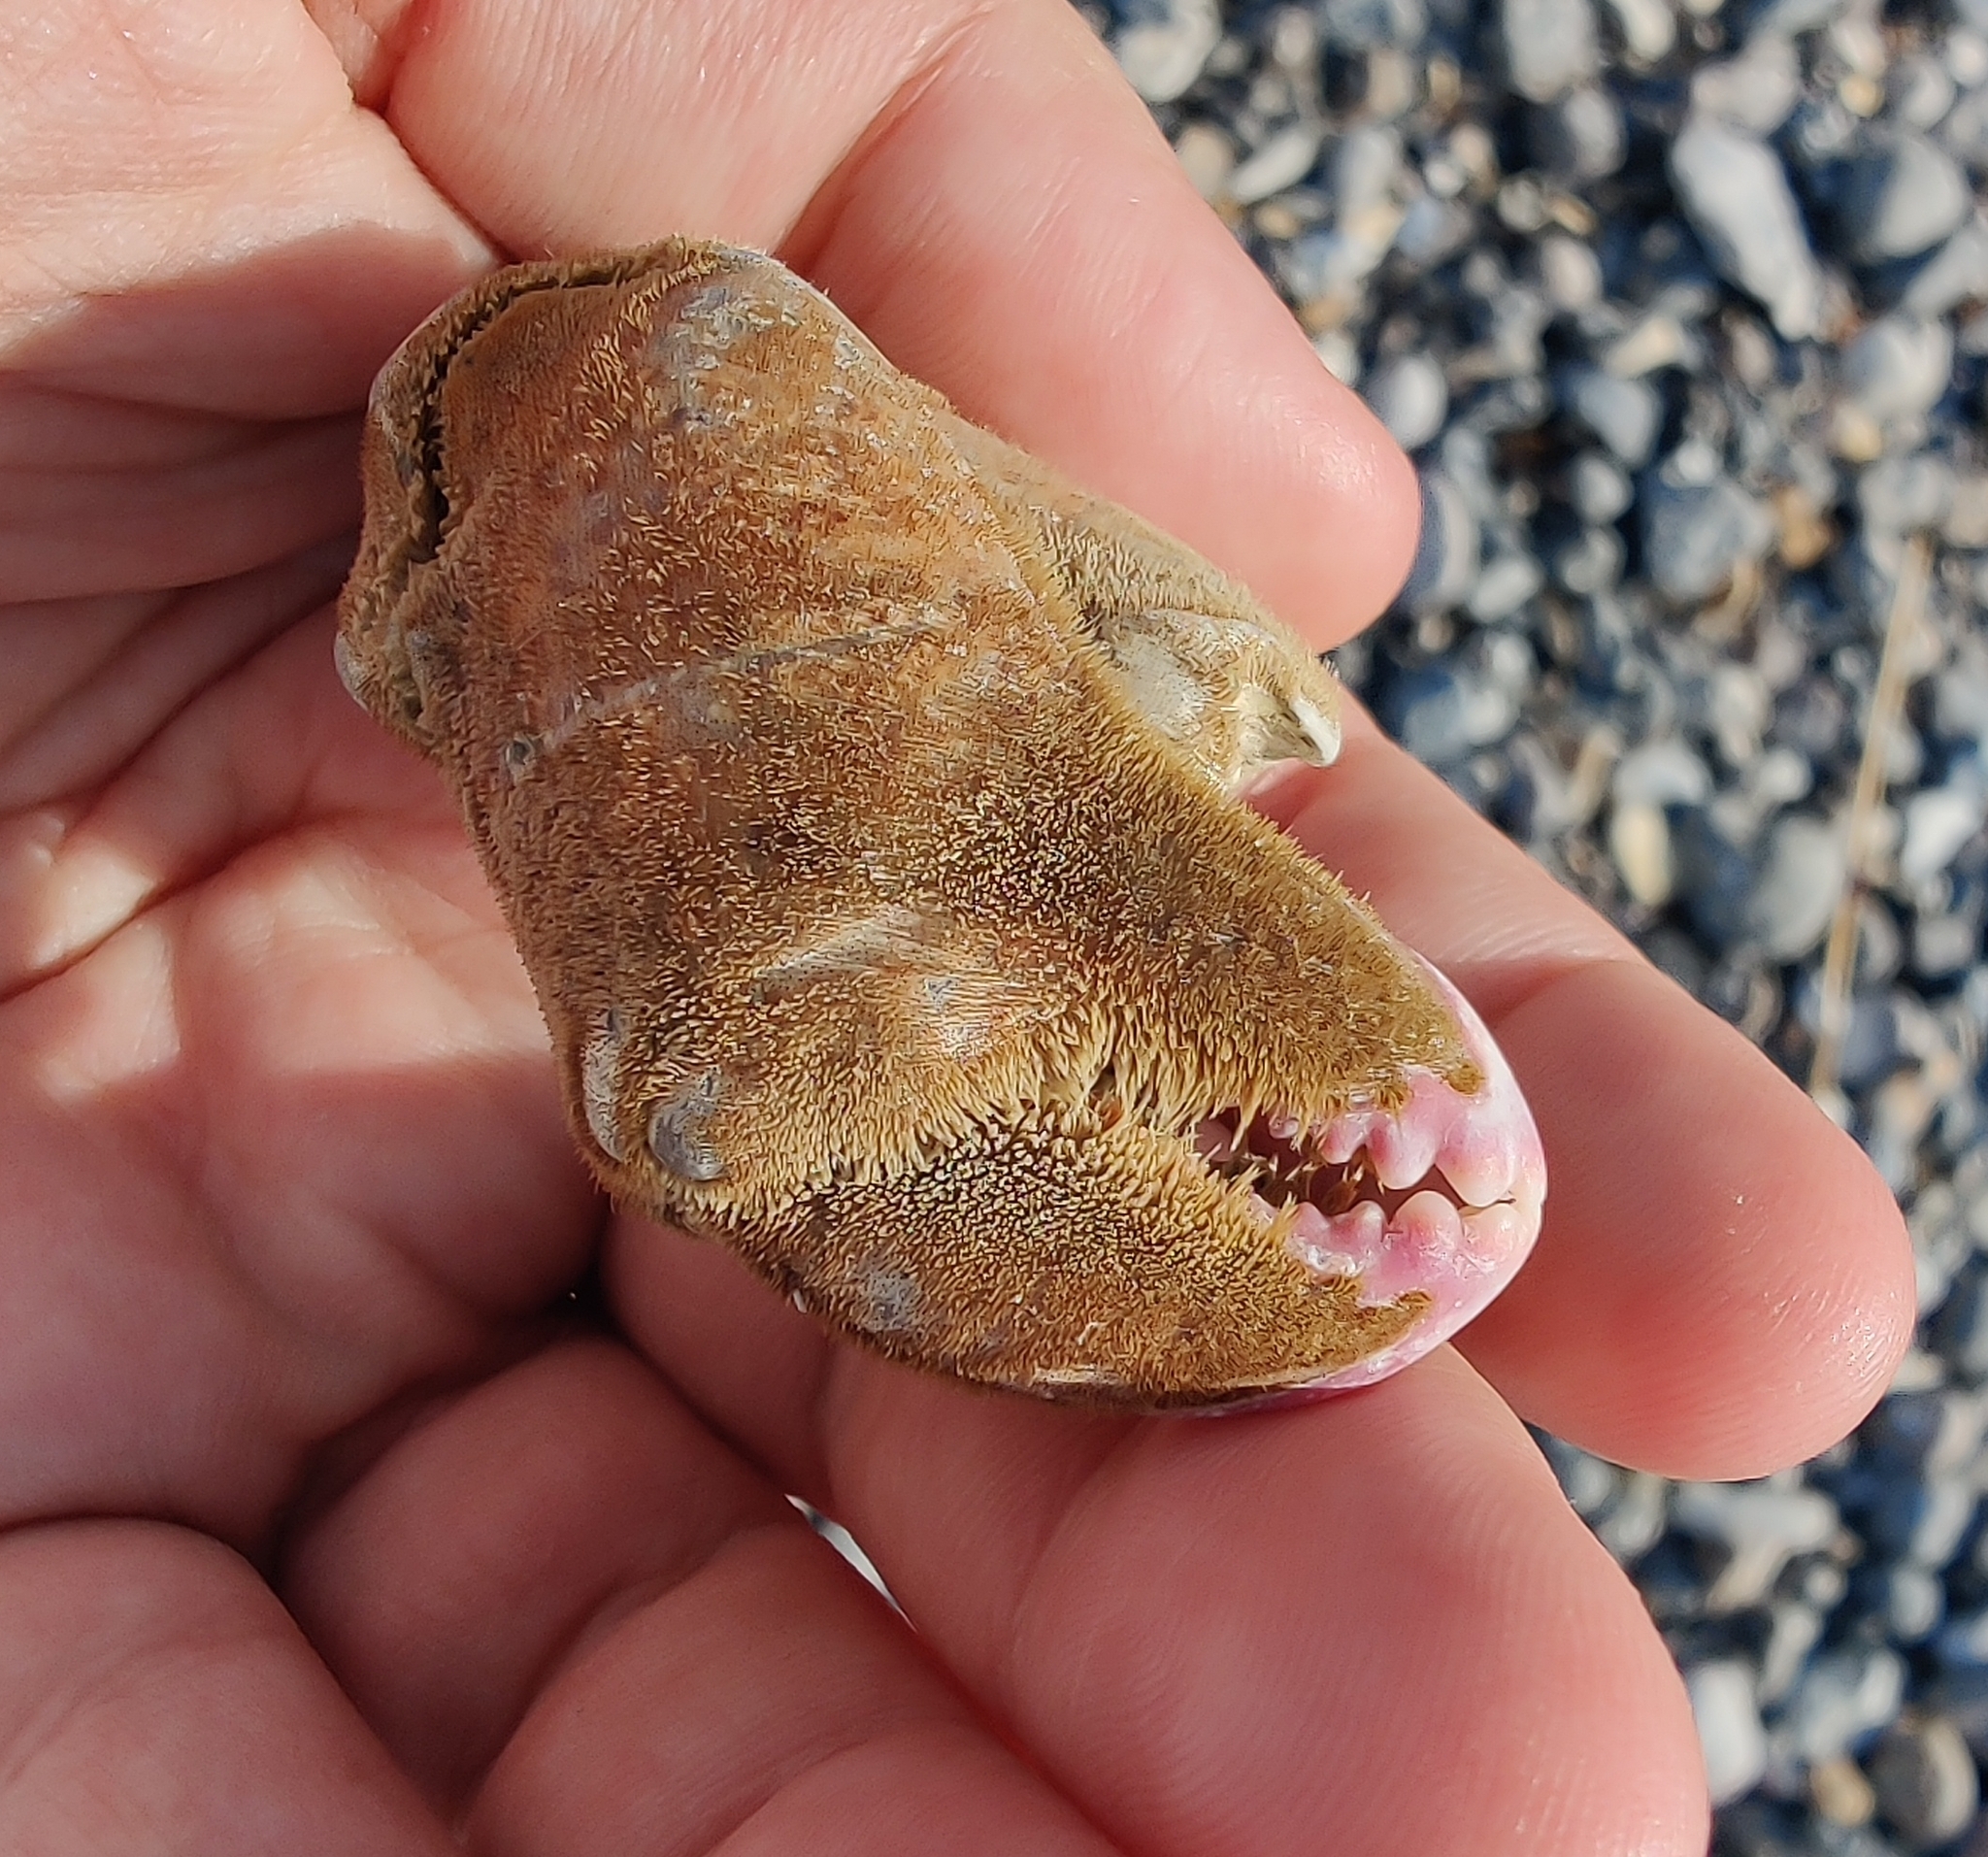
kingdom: Animalia
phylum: Arthropoda
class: Malacostraca
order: Decapoda
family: Dromiidae
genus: Dromia
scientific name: Dromia personata
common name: Sleepy crab
